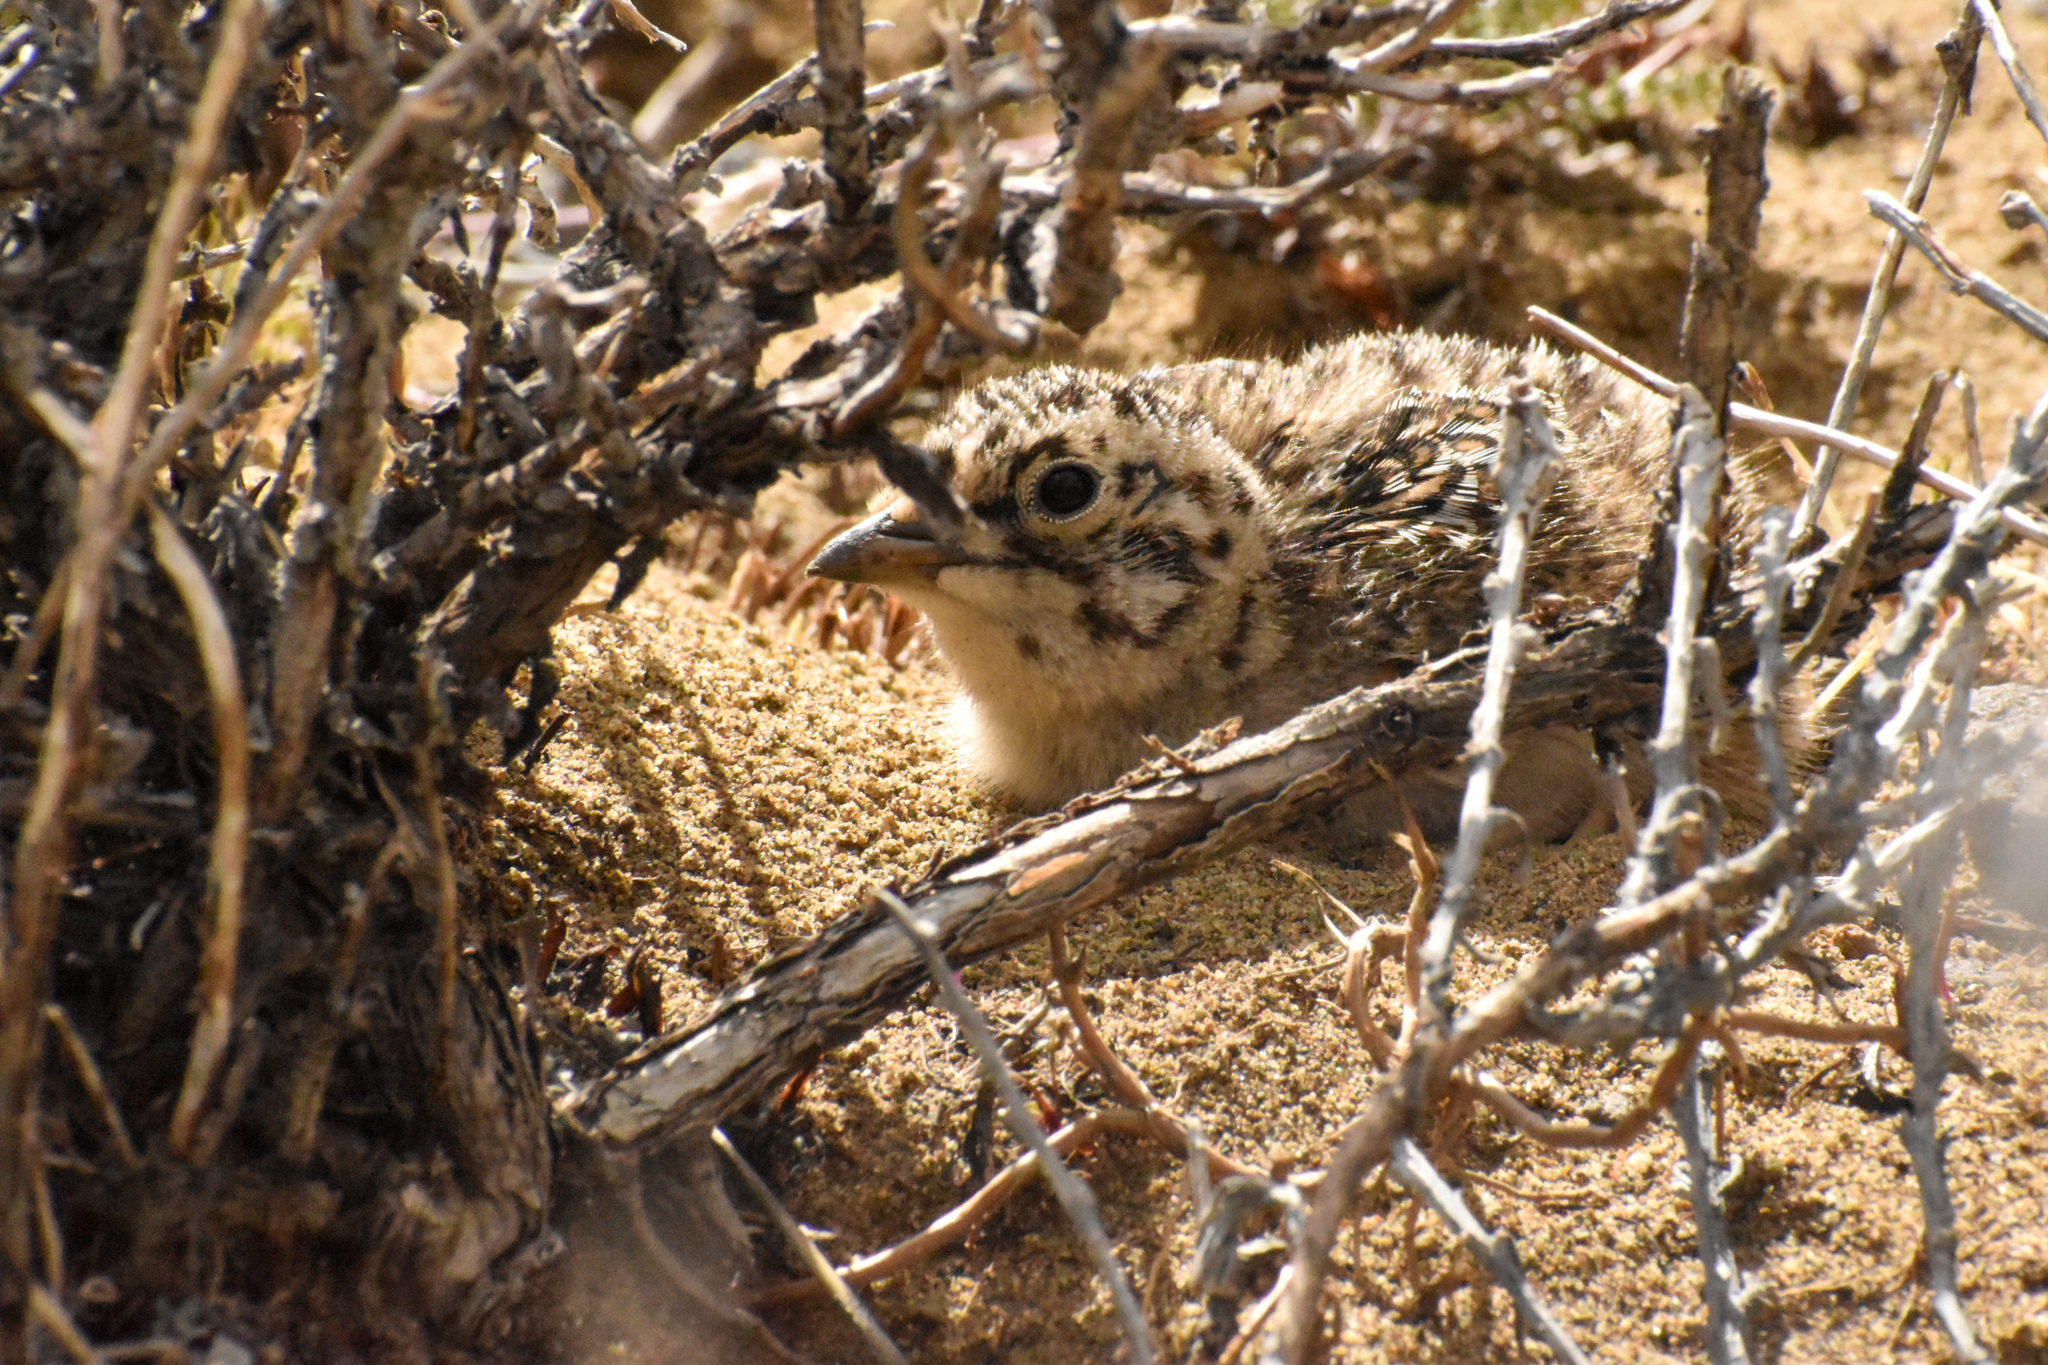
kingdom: Animalia
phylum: Chordata
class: Aves
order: Charadriiformes
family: Thinocoridae
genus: Thinocorus
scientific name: Thinocorus orbignyianus
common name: Grey-breasted seedsnipe
